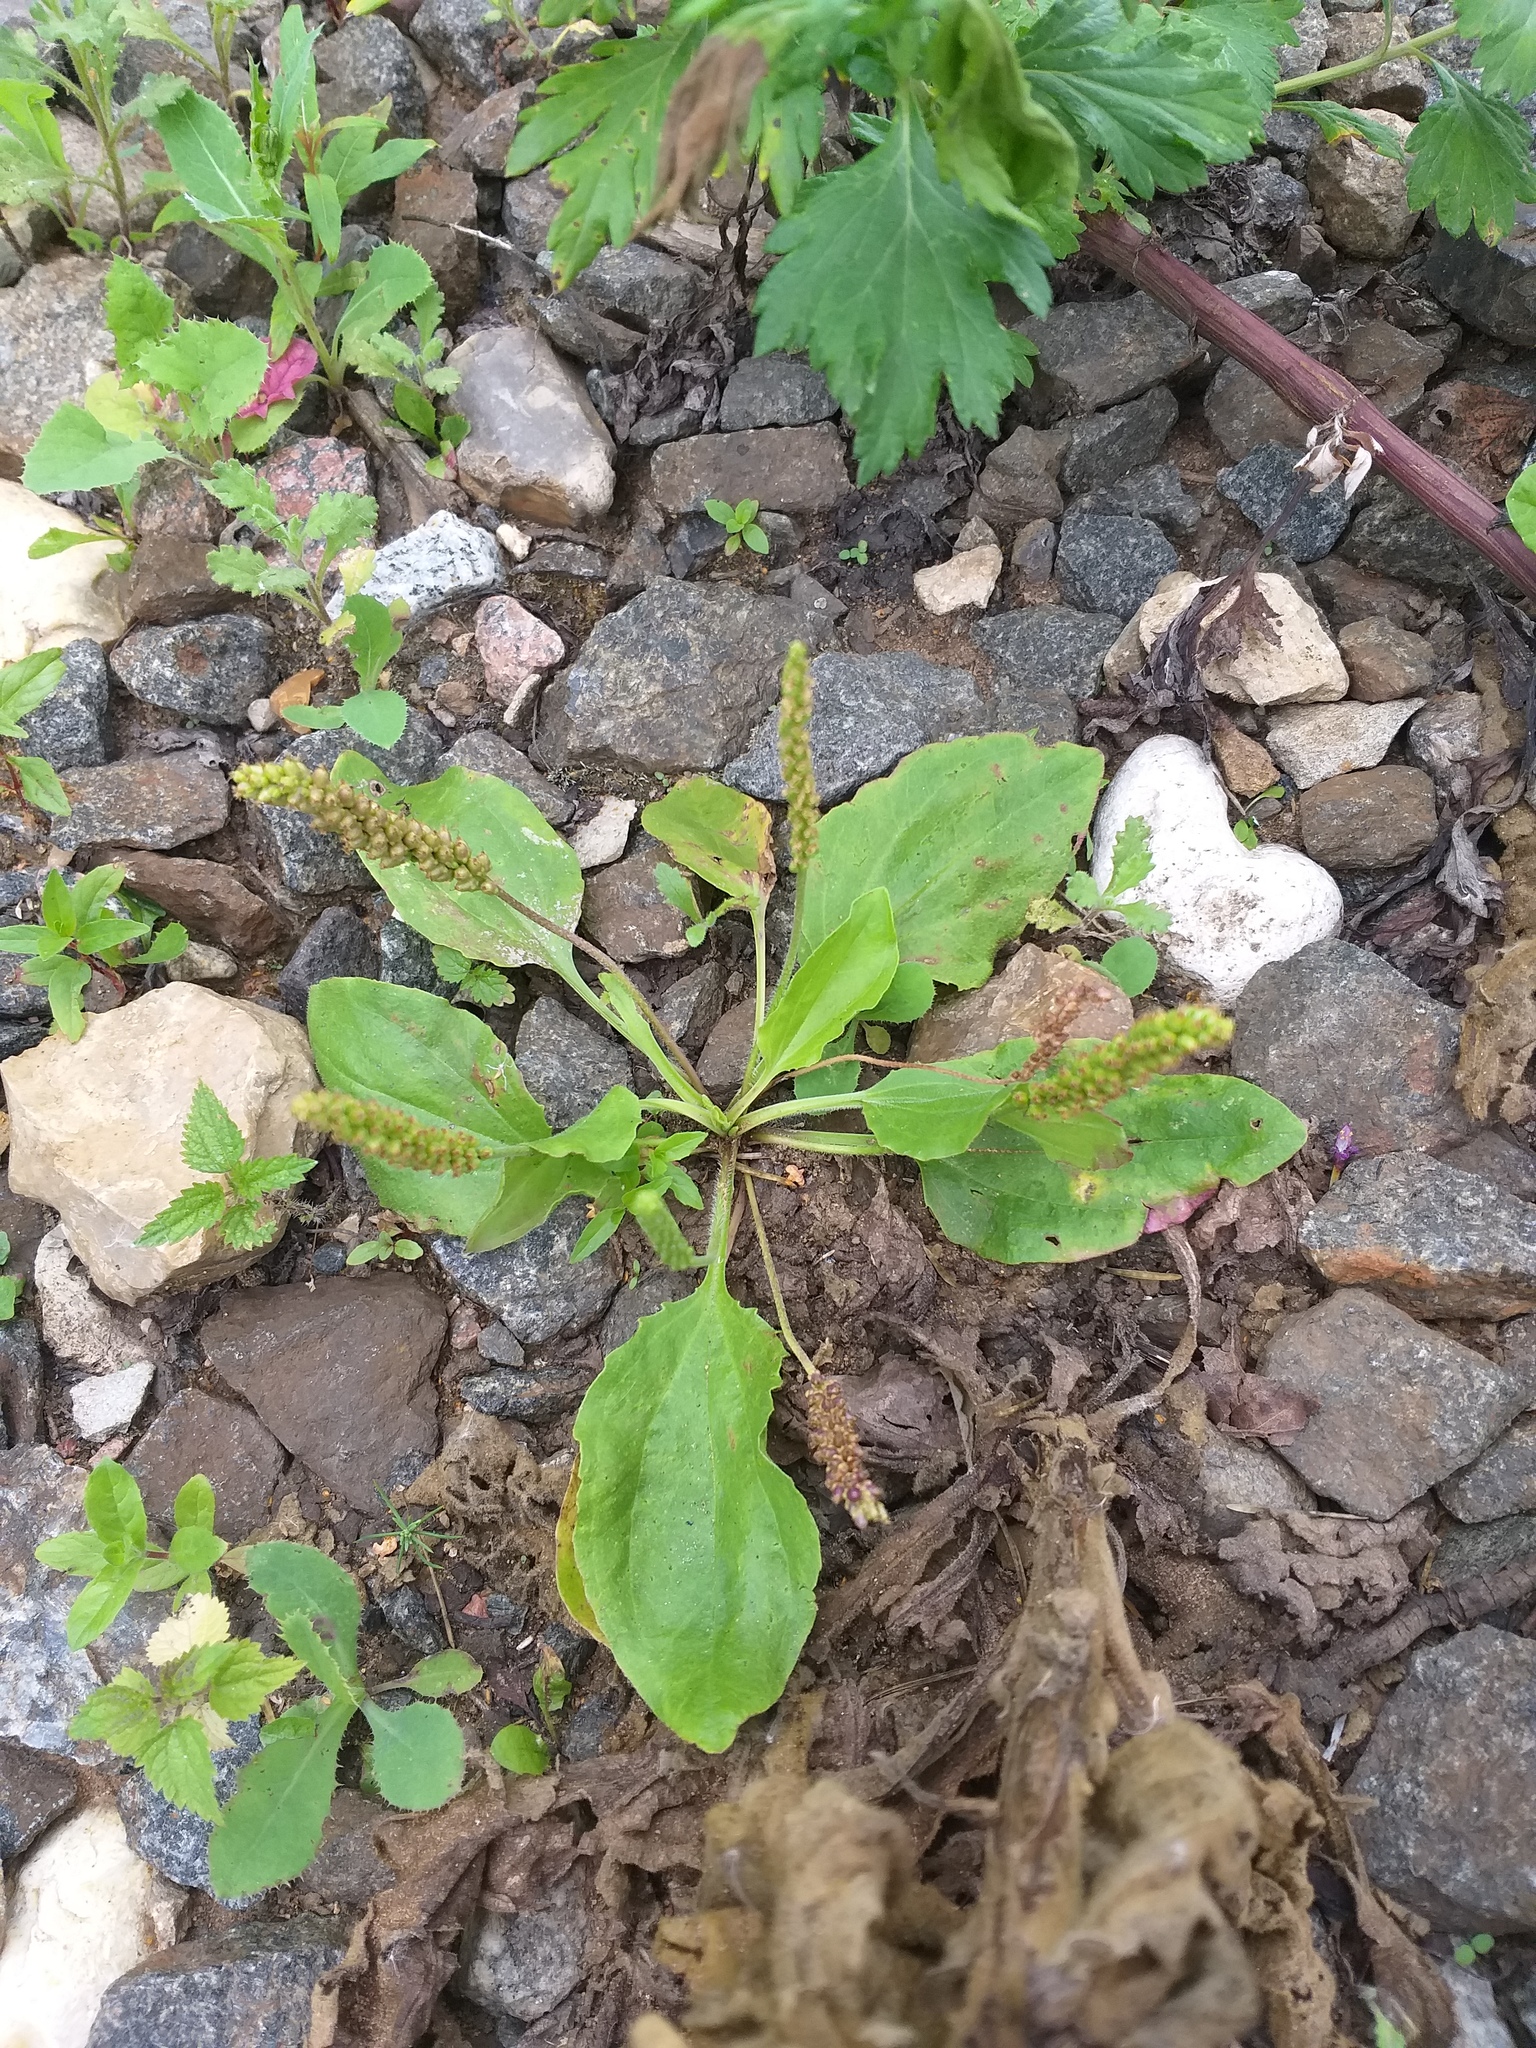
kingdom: Plantae
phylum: Tracheophyta
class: Magnoliopsida
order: Lamiales
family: Plantaginaceae
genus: Plantago
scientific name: Plantago uliginosa
